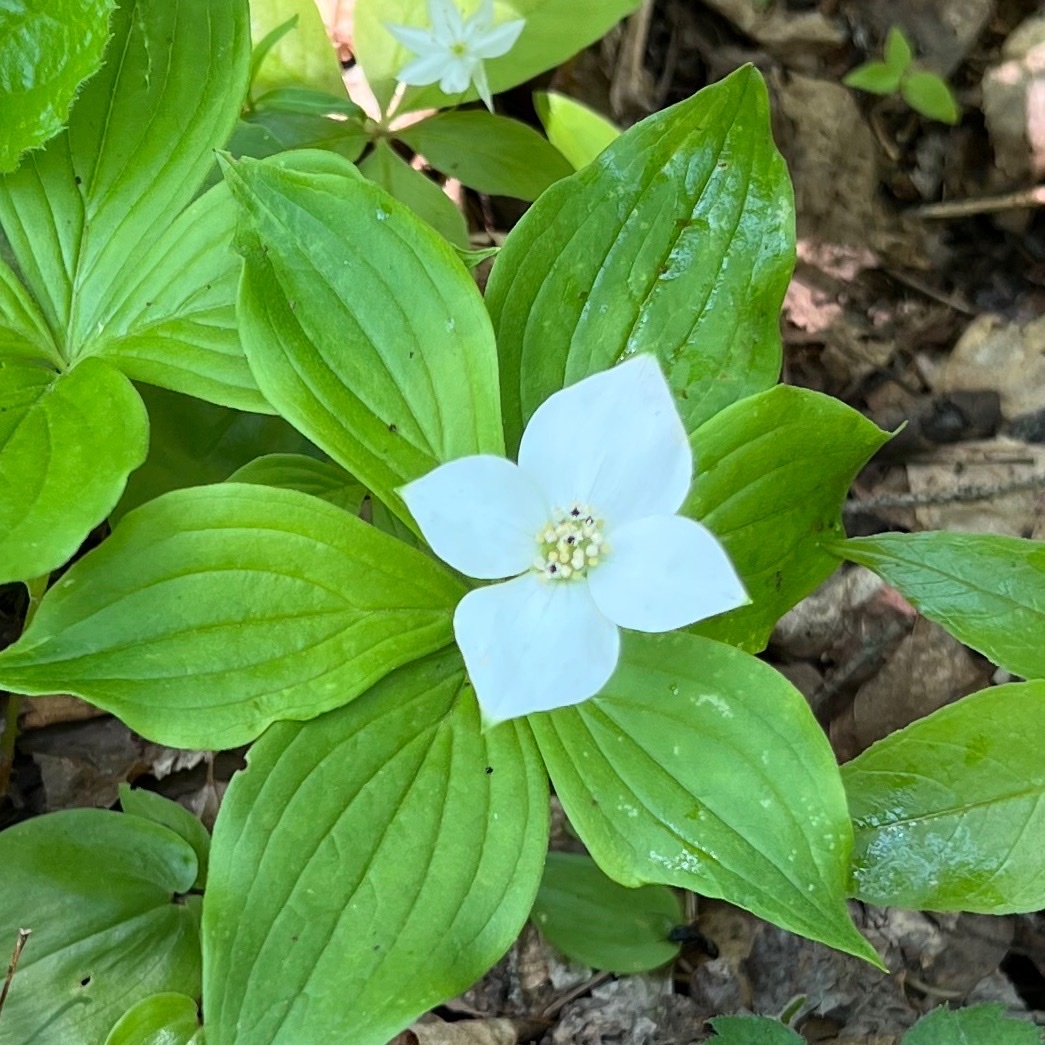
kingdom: Plantae
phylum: Tracheophyta
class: Magnoliopsida
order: Cornales
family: Cornaceae
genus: Cornus
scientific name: Cornus canadensis
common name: Creeping dogwood
